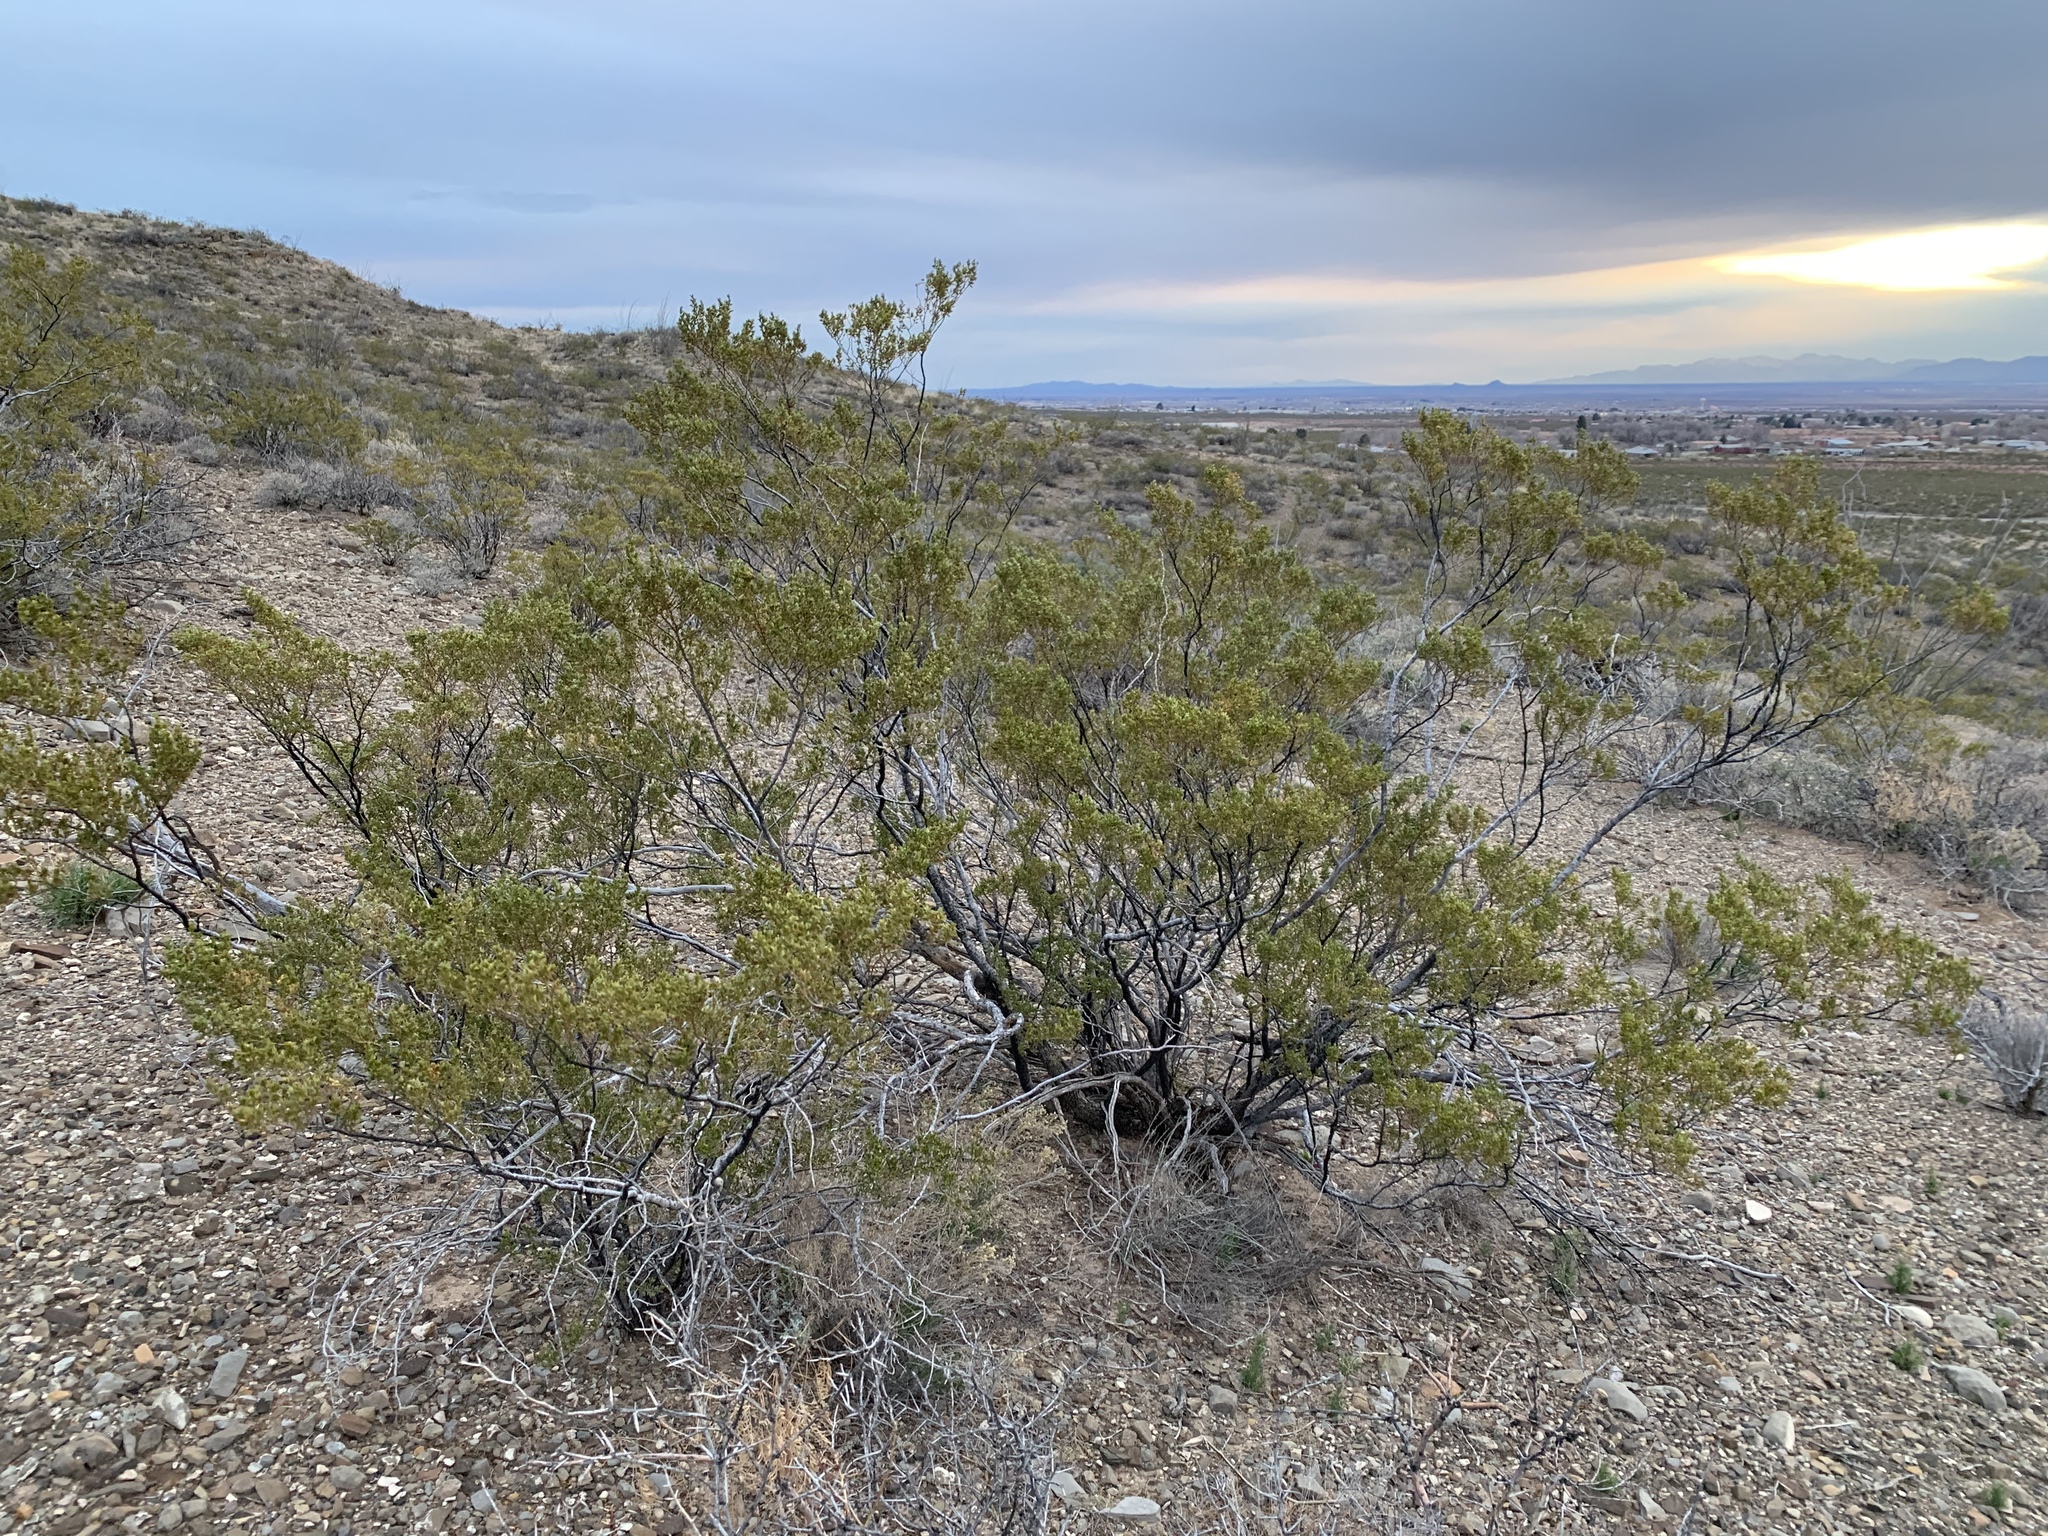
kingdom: Plantae
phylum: Tracheophyta
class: Magnoliopsida
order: Zygophyllales
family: Zygophyllaceae
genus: Larrea
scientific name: Larrea tridentata
